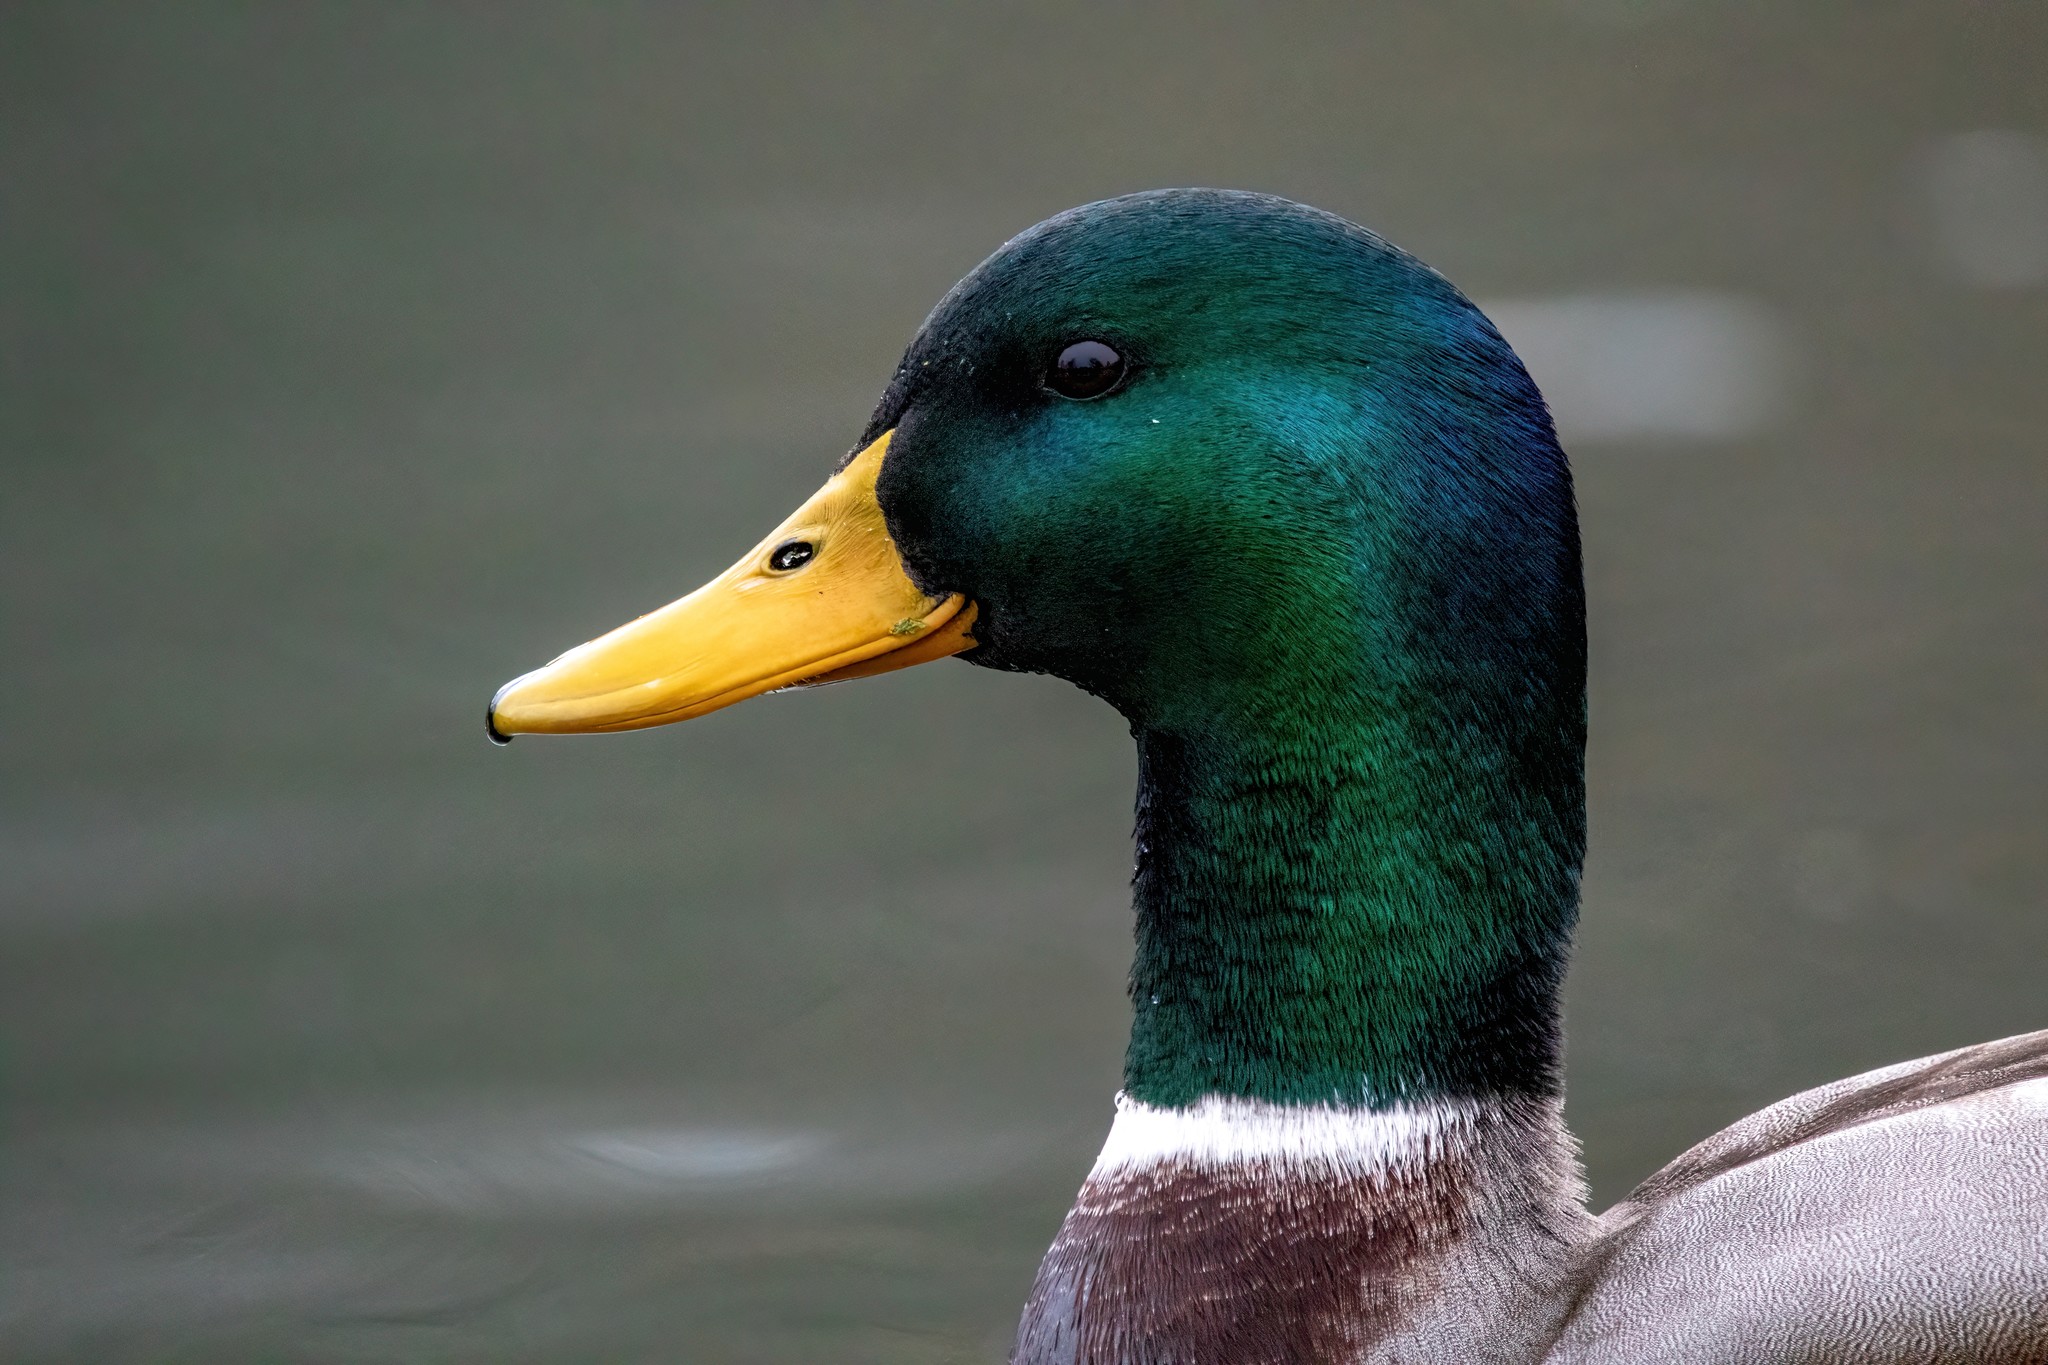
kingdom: Animalia
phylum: Chordata
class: Aves
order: Anseriformes
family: Anatidae
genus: Anas
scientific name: Anas platyrhynchos
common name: Mallard
